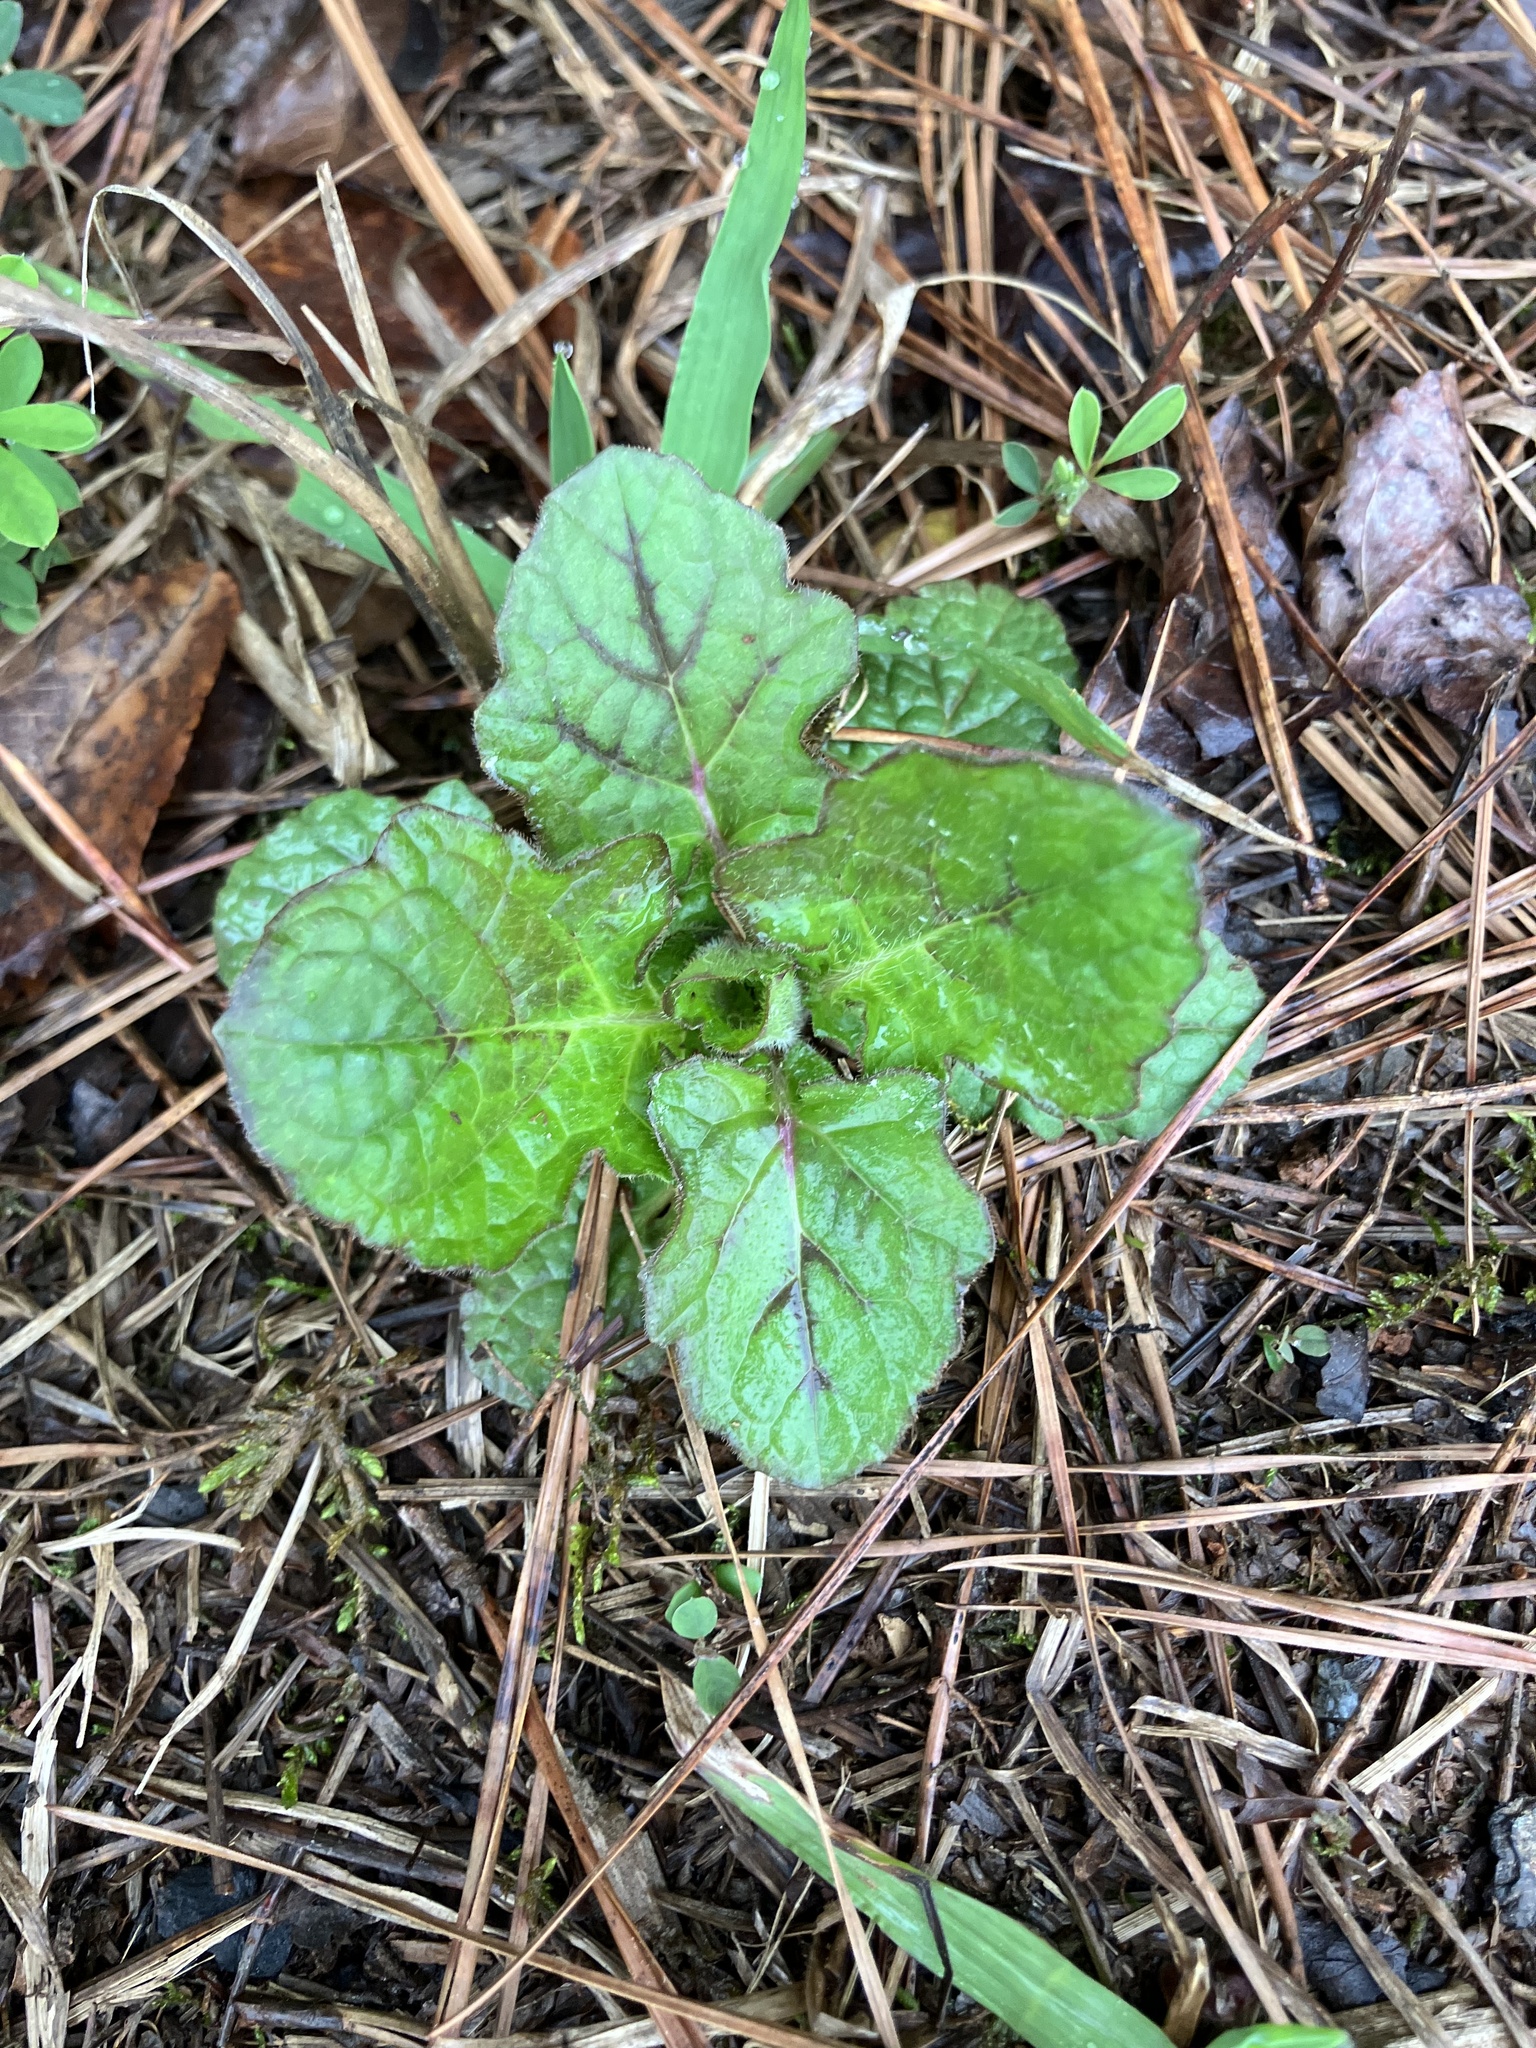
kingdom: Plantae
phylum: Tracheophyta
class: Magnoliopsida
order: Lamiales
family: Lamiaceae
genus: Salvia
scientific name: Salvia lyrata
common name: Cancerweed
